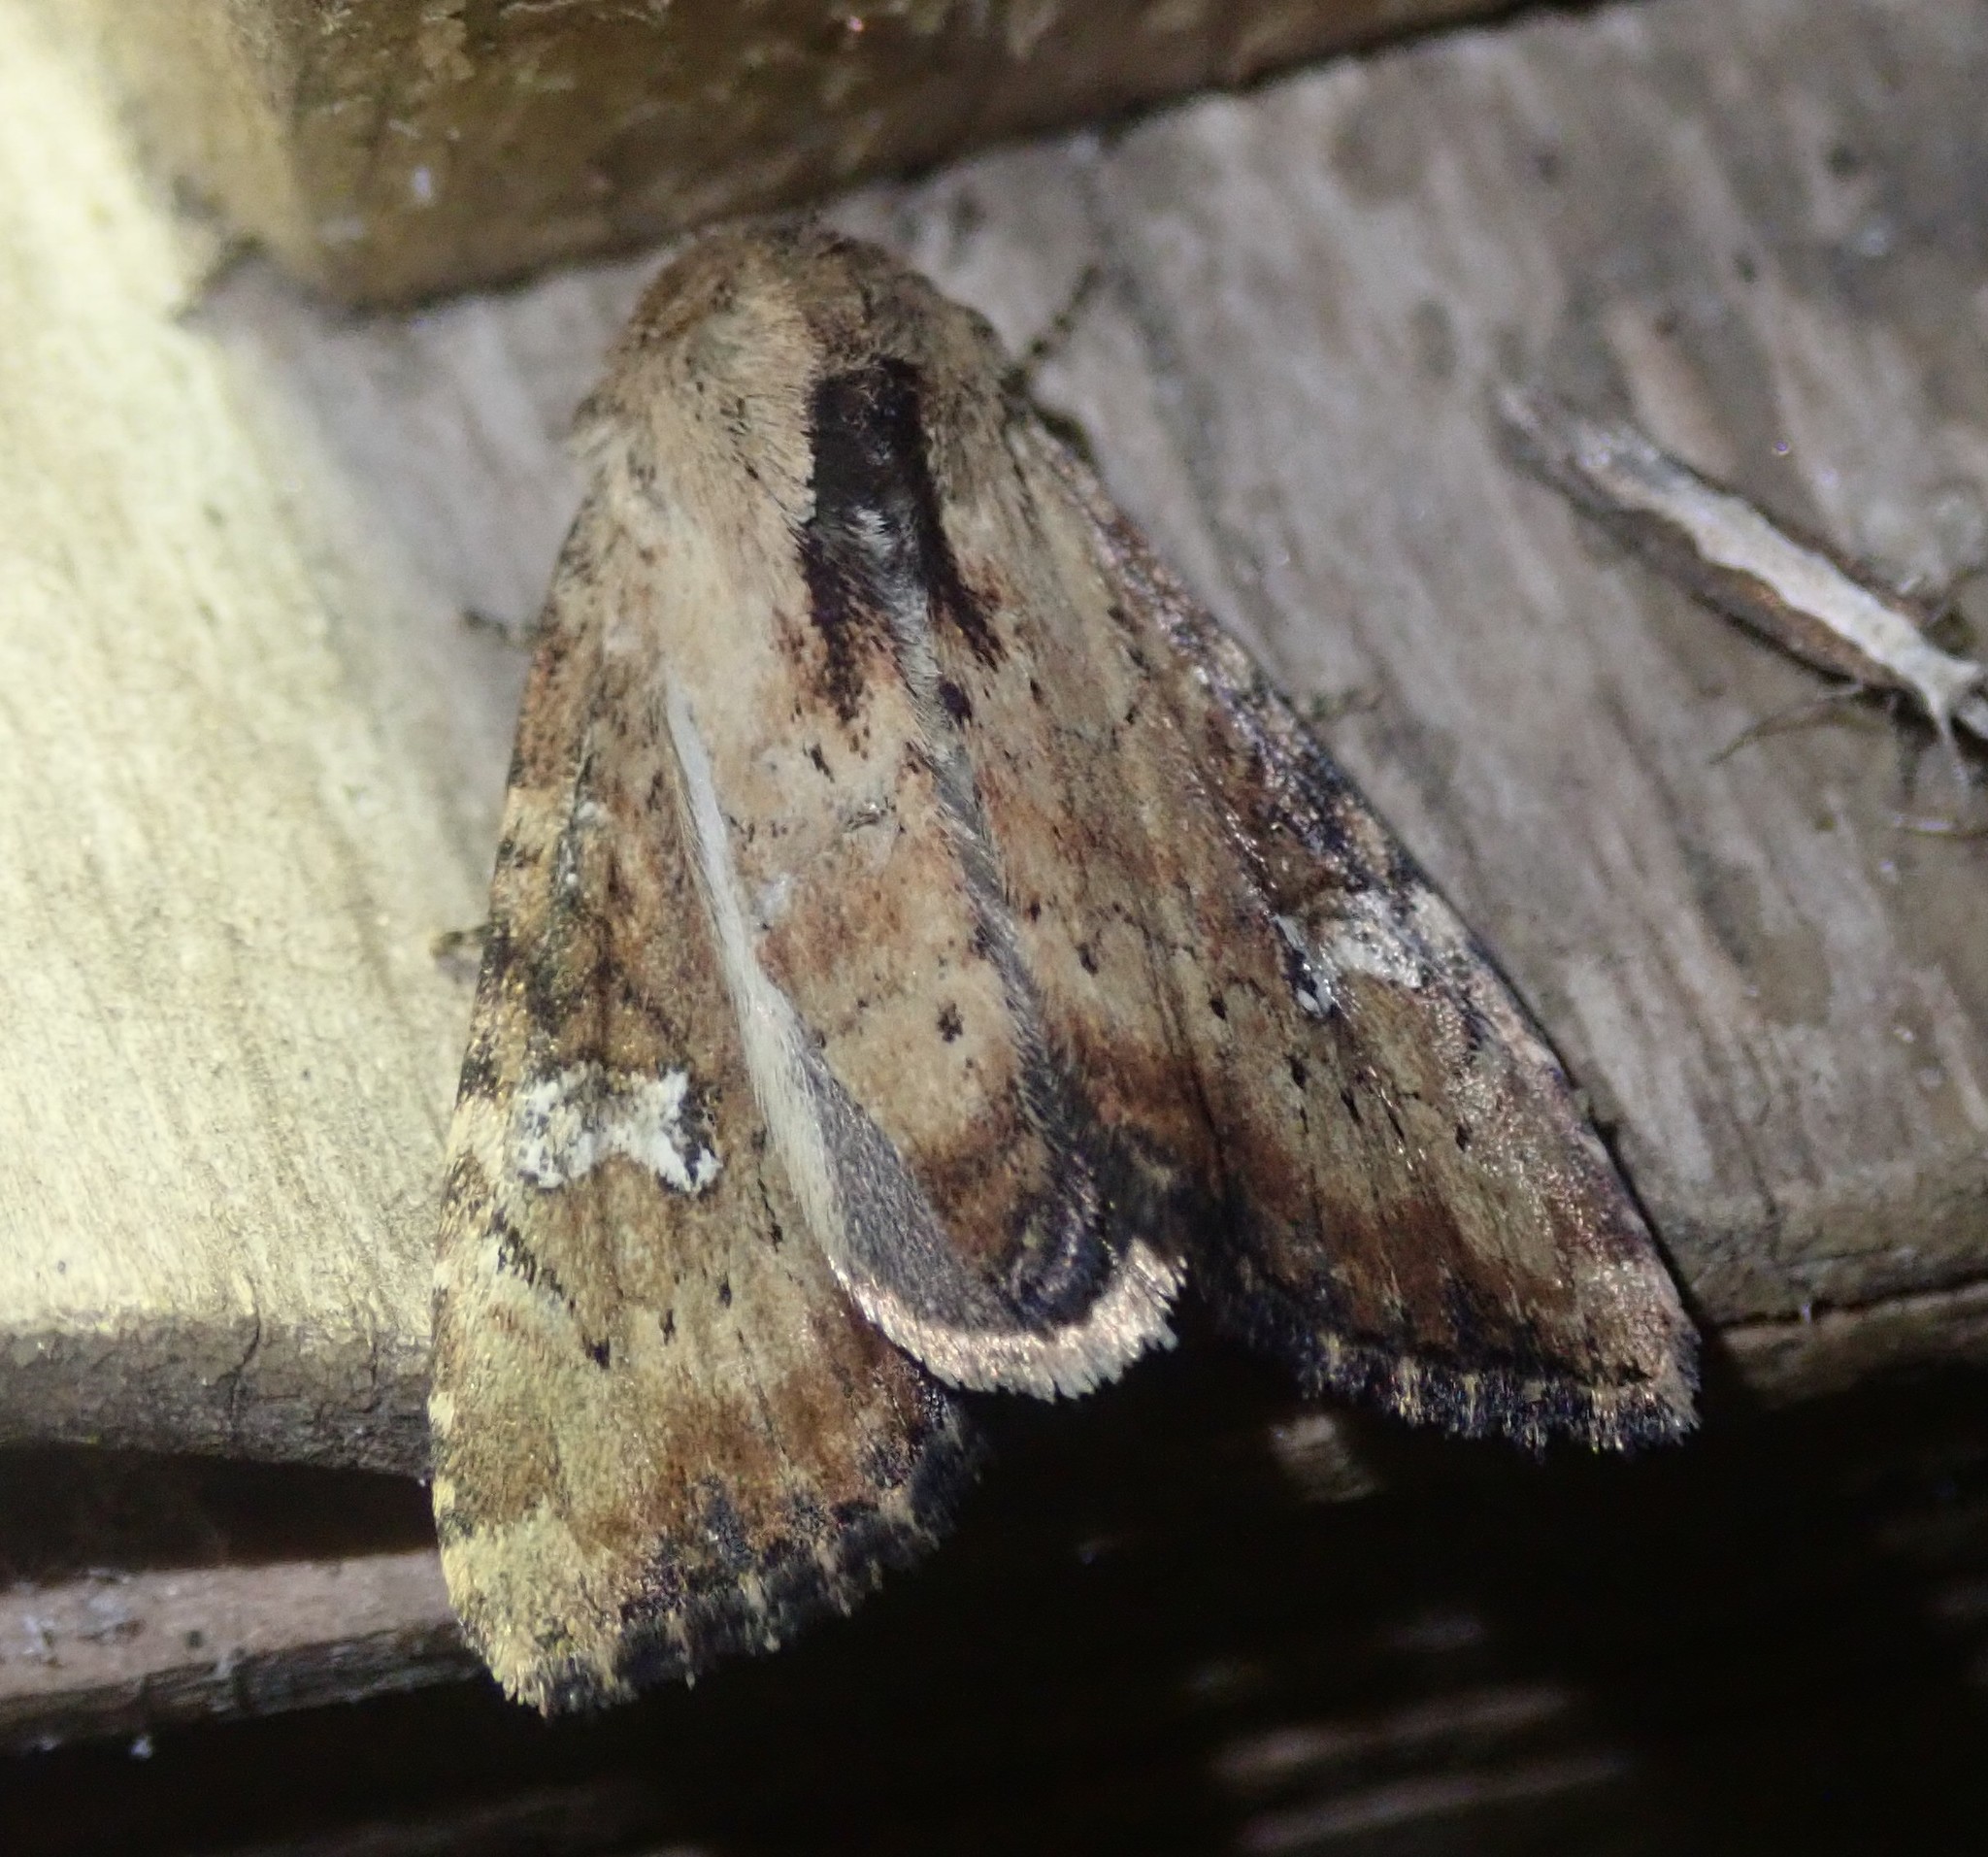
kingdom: Animalia
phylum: Arthropoda
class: Insecta
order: Lepidoptera
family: Noctuidae
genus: Loscopia
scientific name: Loscopia scolopacina
